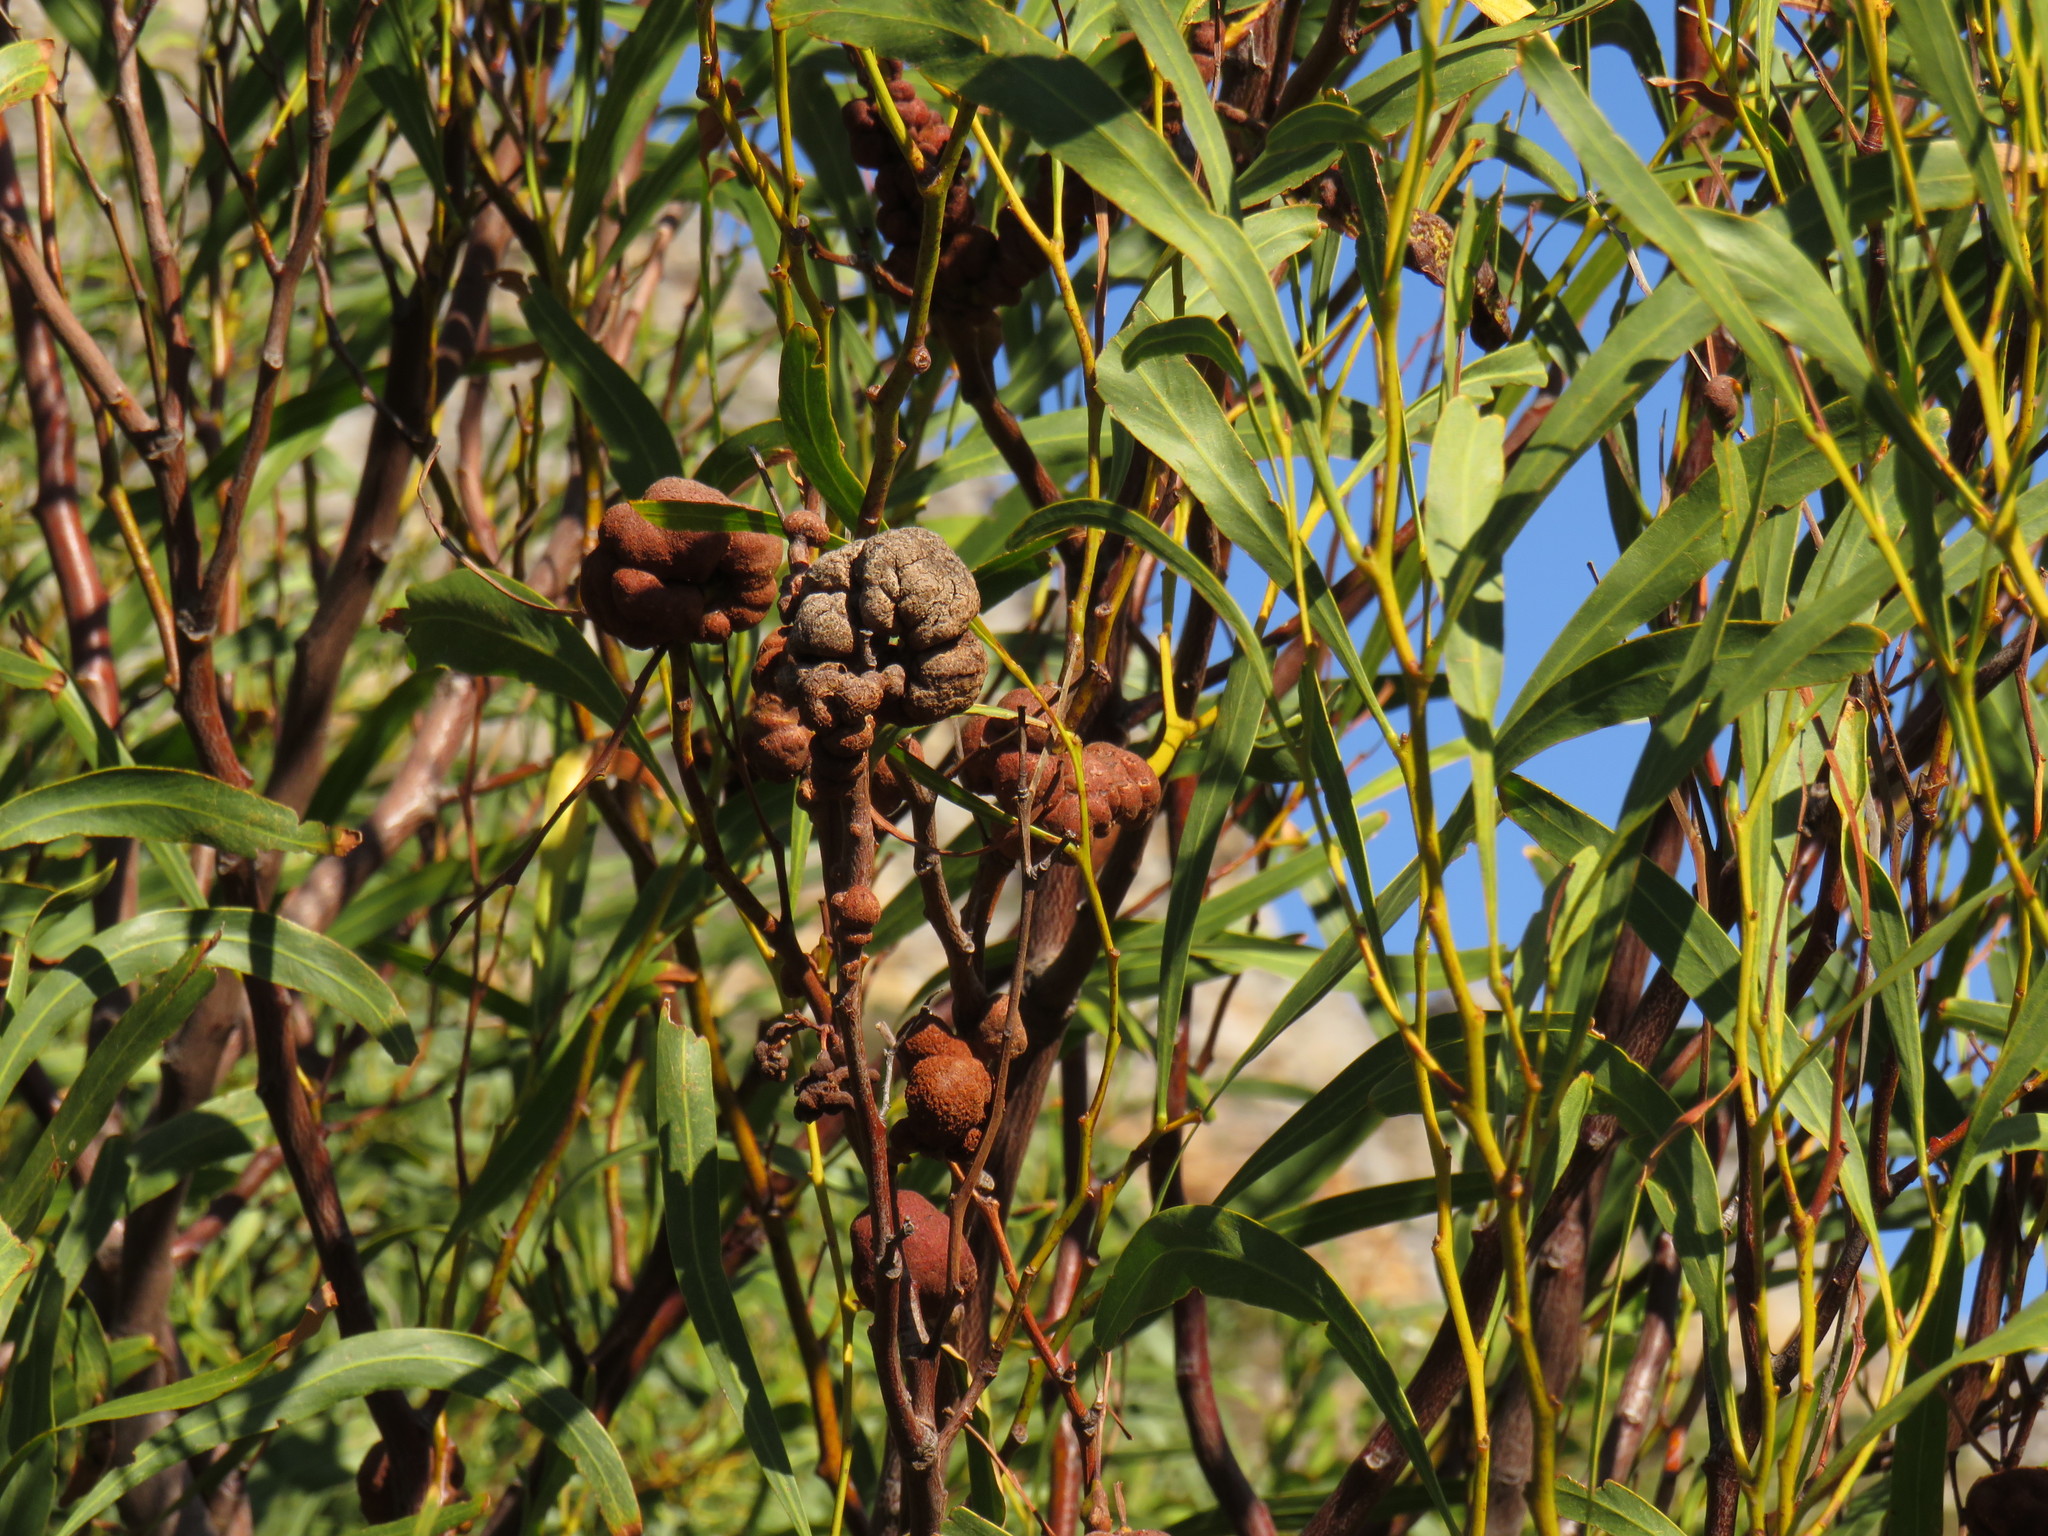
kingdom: Fungi
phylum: Basidiomycota
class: Pucciniomycetes
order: Pucciniales
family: Uromycladiaceae
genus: Uromycladium
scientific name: Uromycladium morrisii
